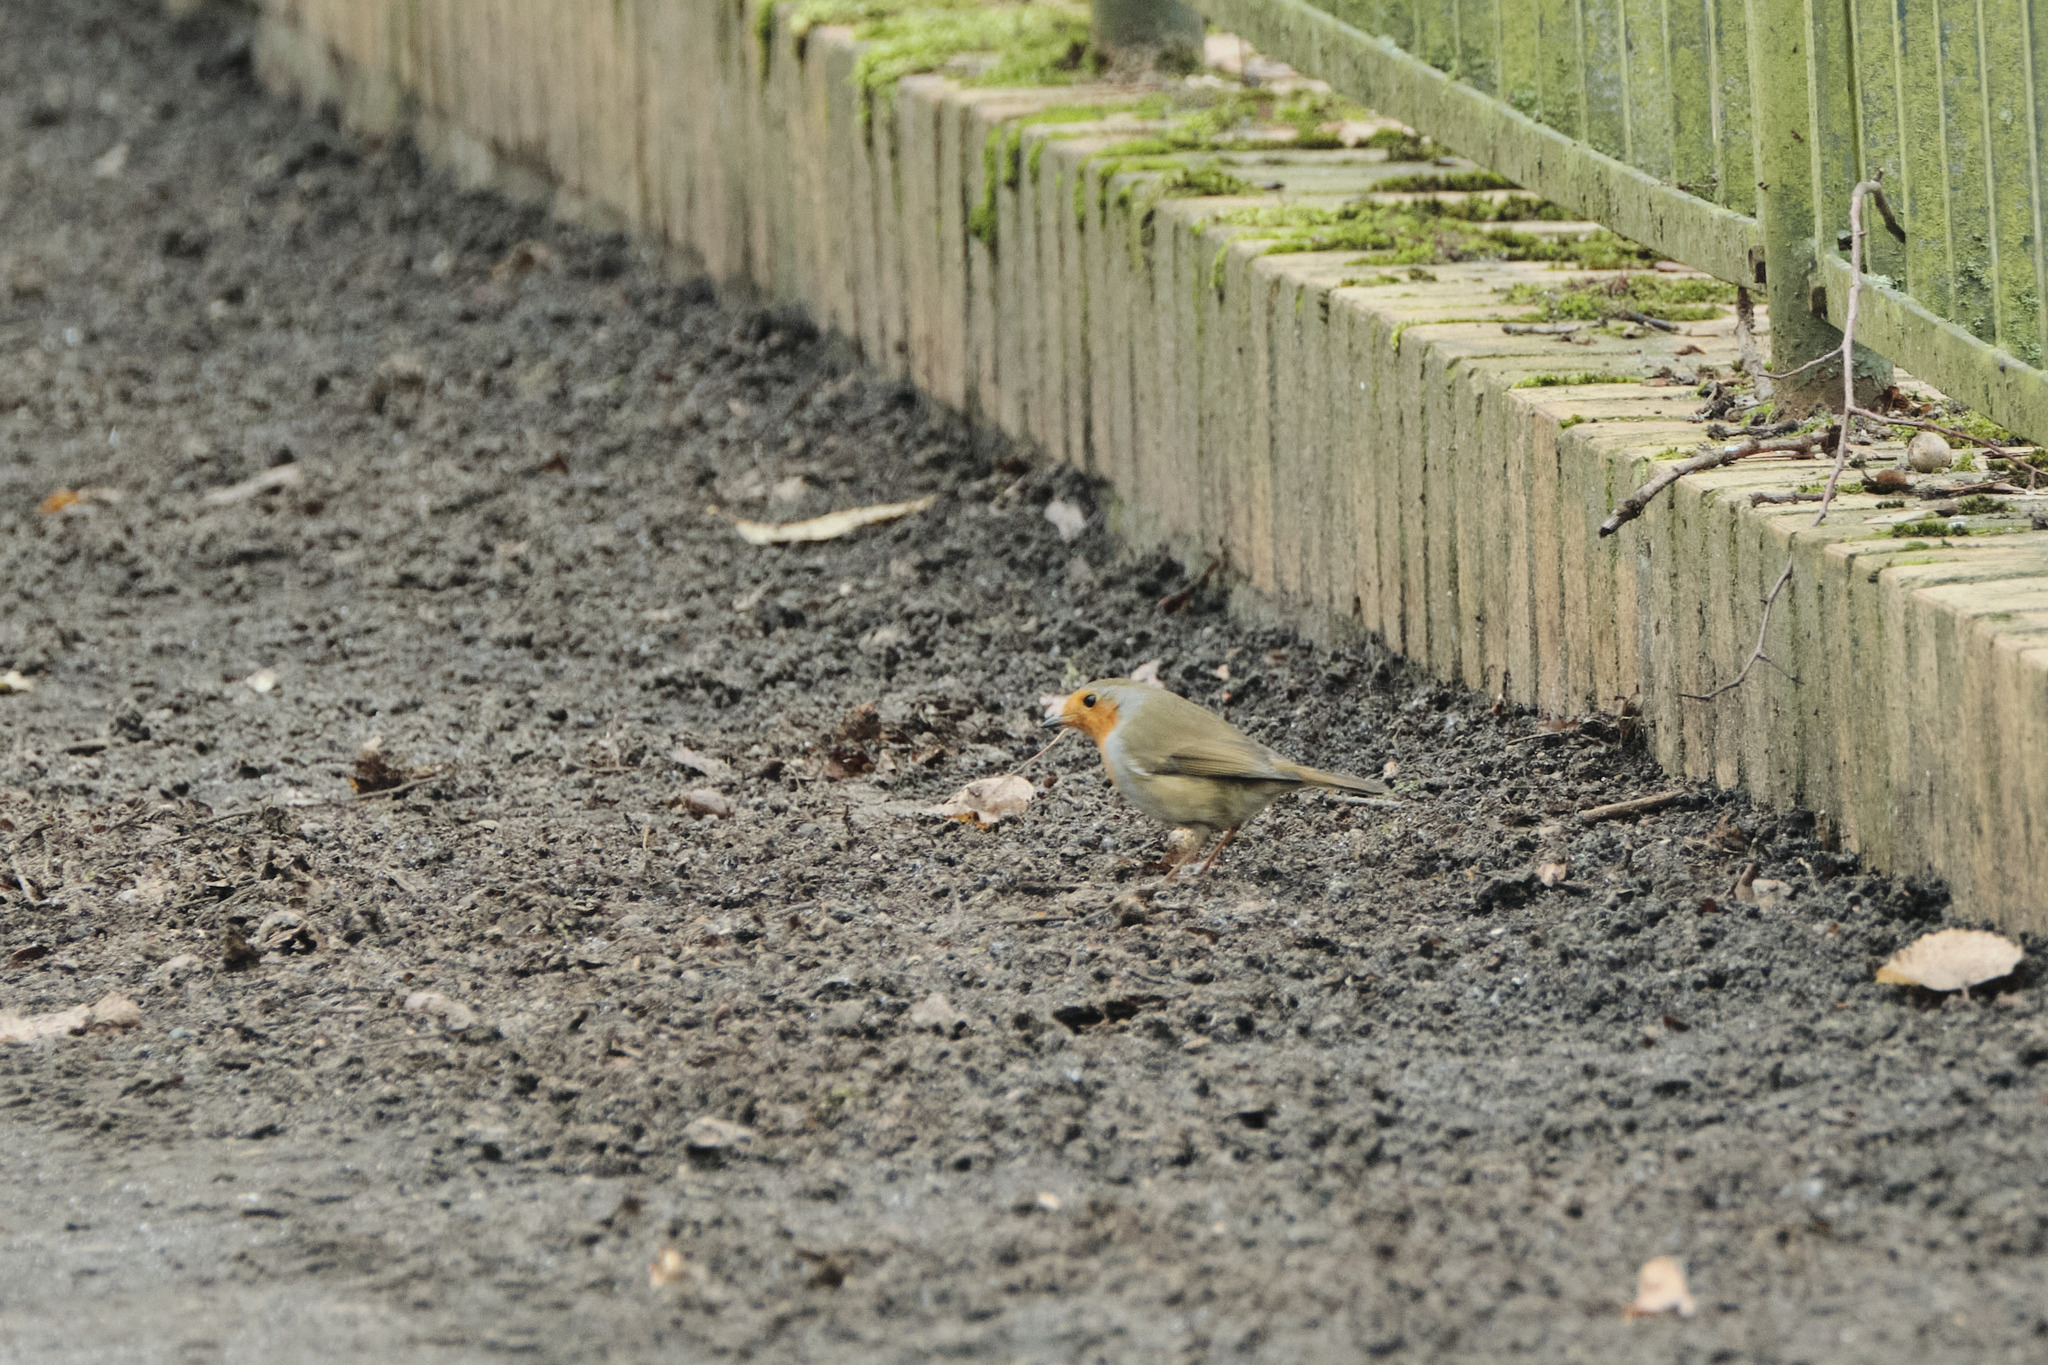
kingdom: Animalia
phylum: Chordata
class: Aves
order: Passeriformes
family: Muscicapidae
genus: Erithacus
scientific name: Erithacus rubecula
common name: European robin
